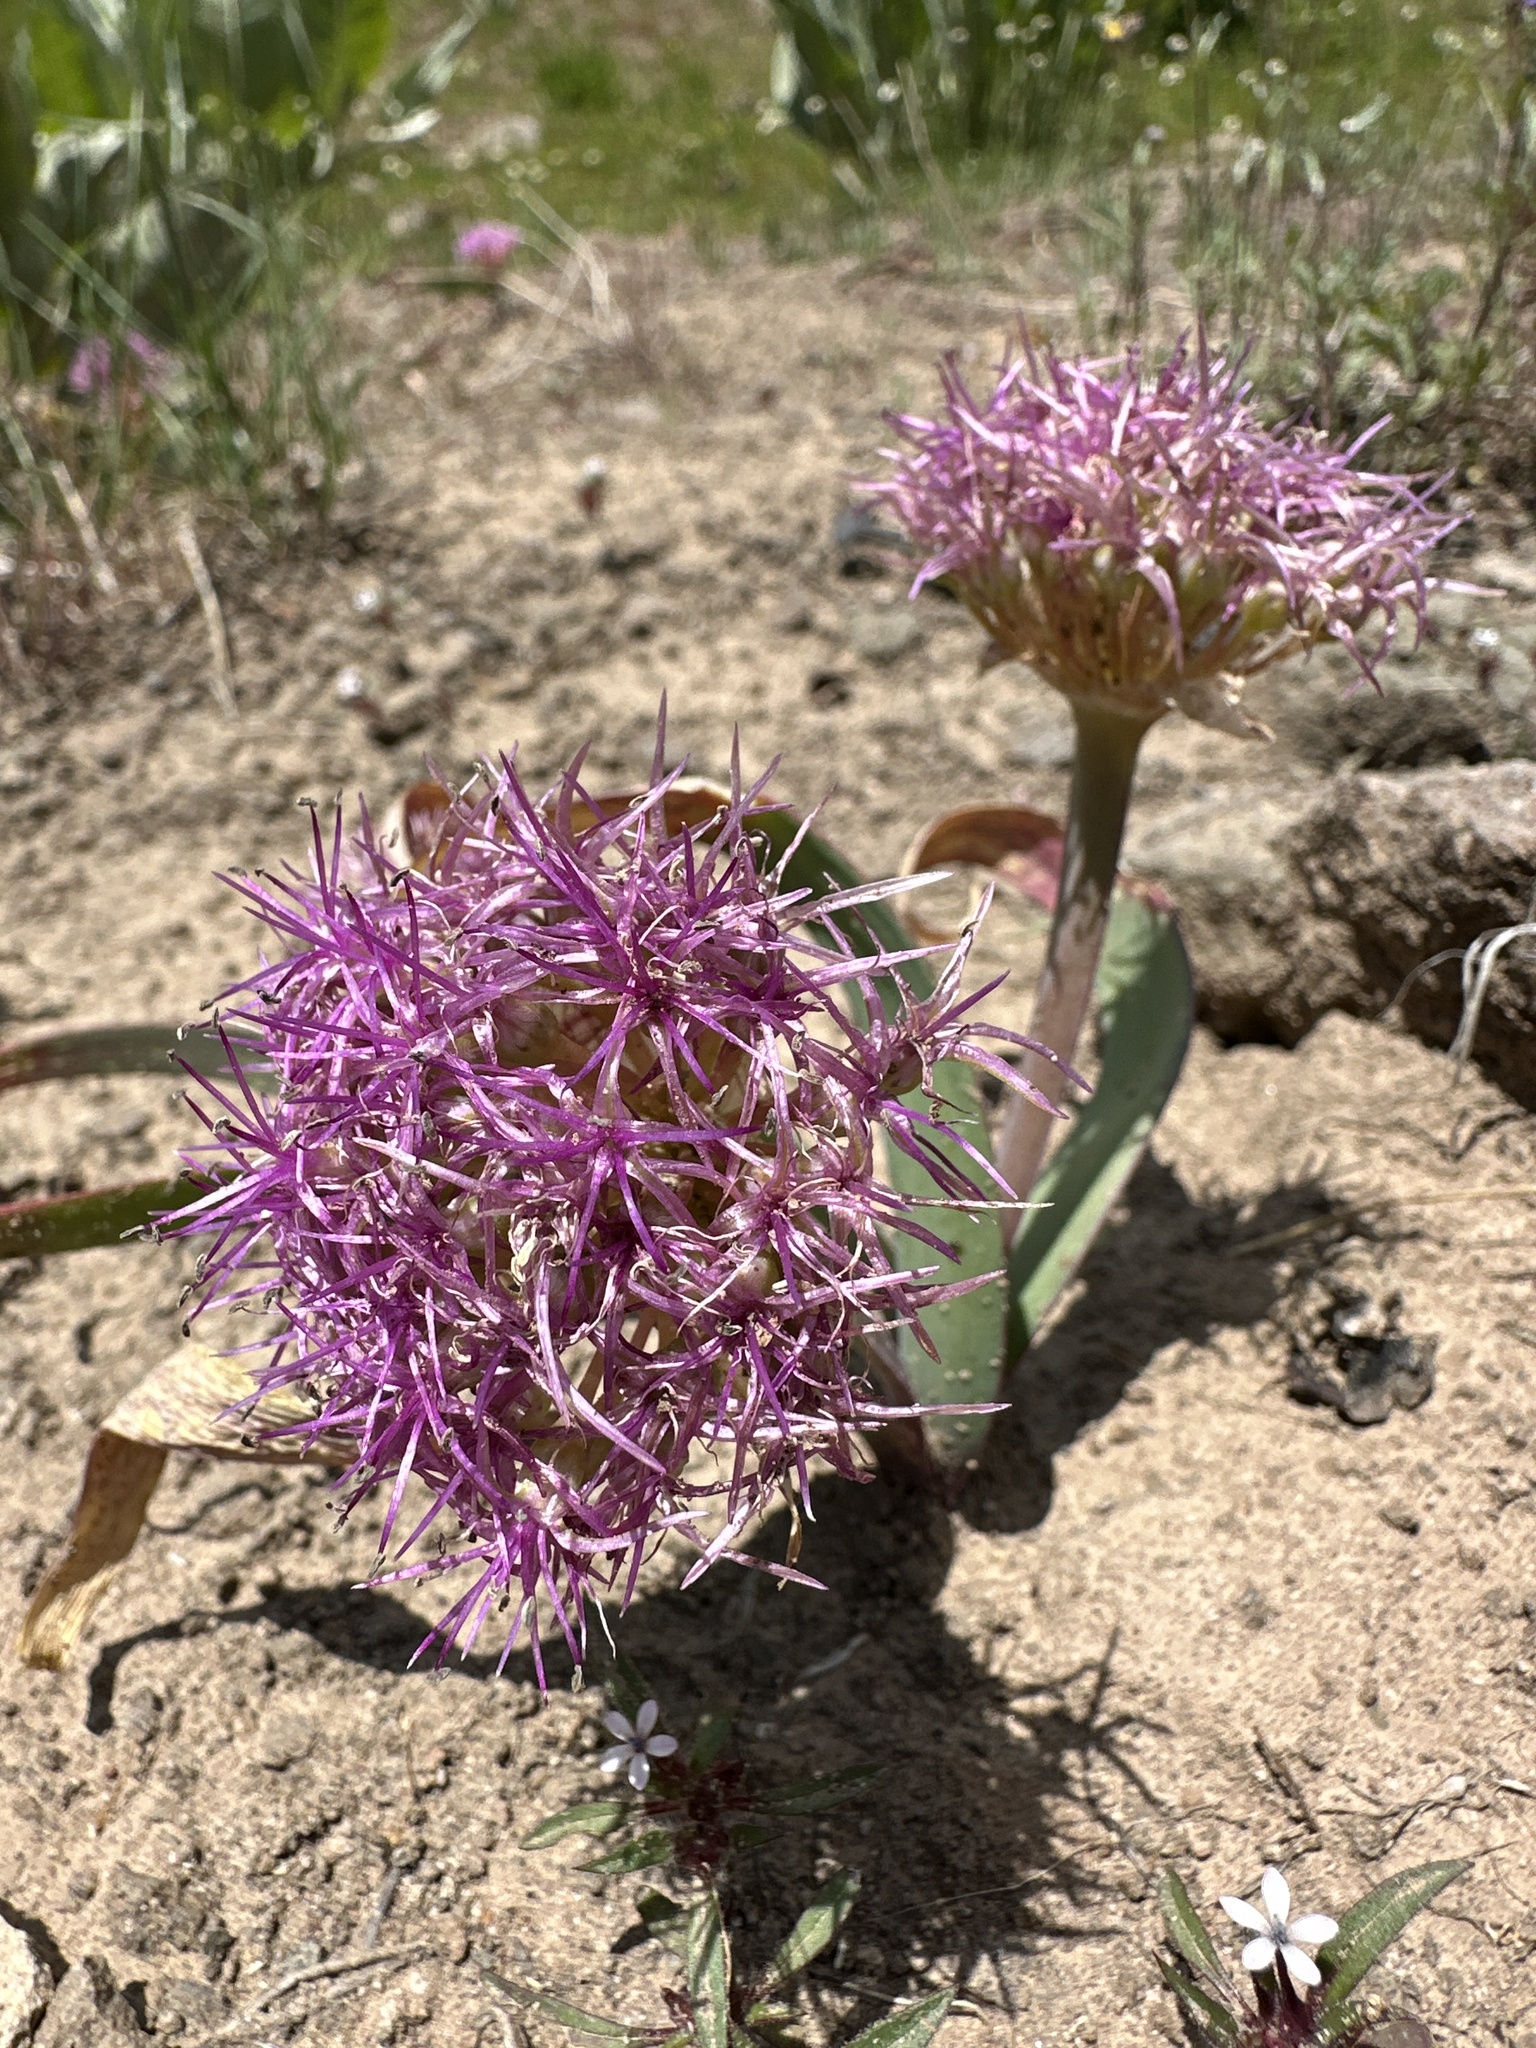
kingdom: Plantae
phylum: Tracheophyta
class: Liliopsida
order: Asparagales
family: Amaryllidaceae
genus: Allium
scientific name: Allium platycaule
